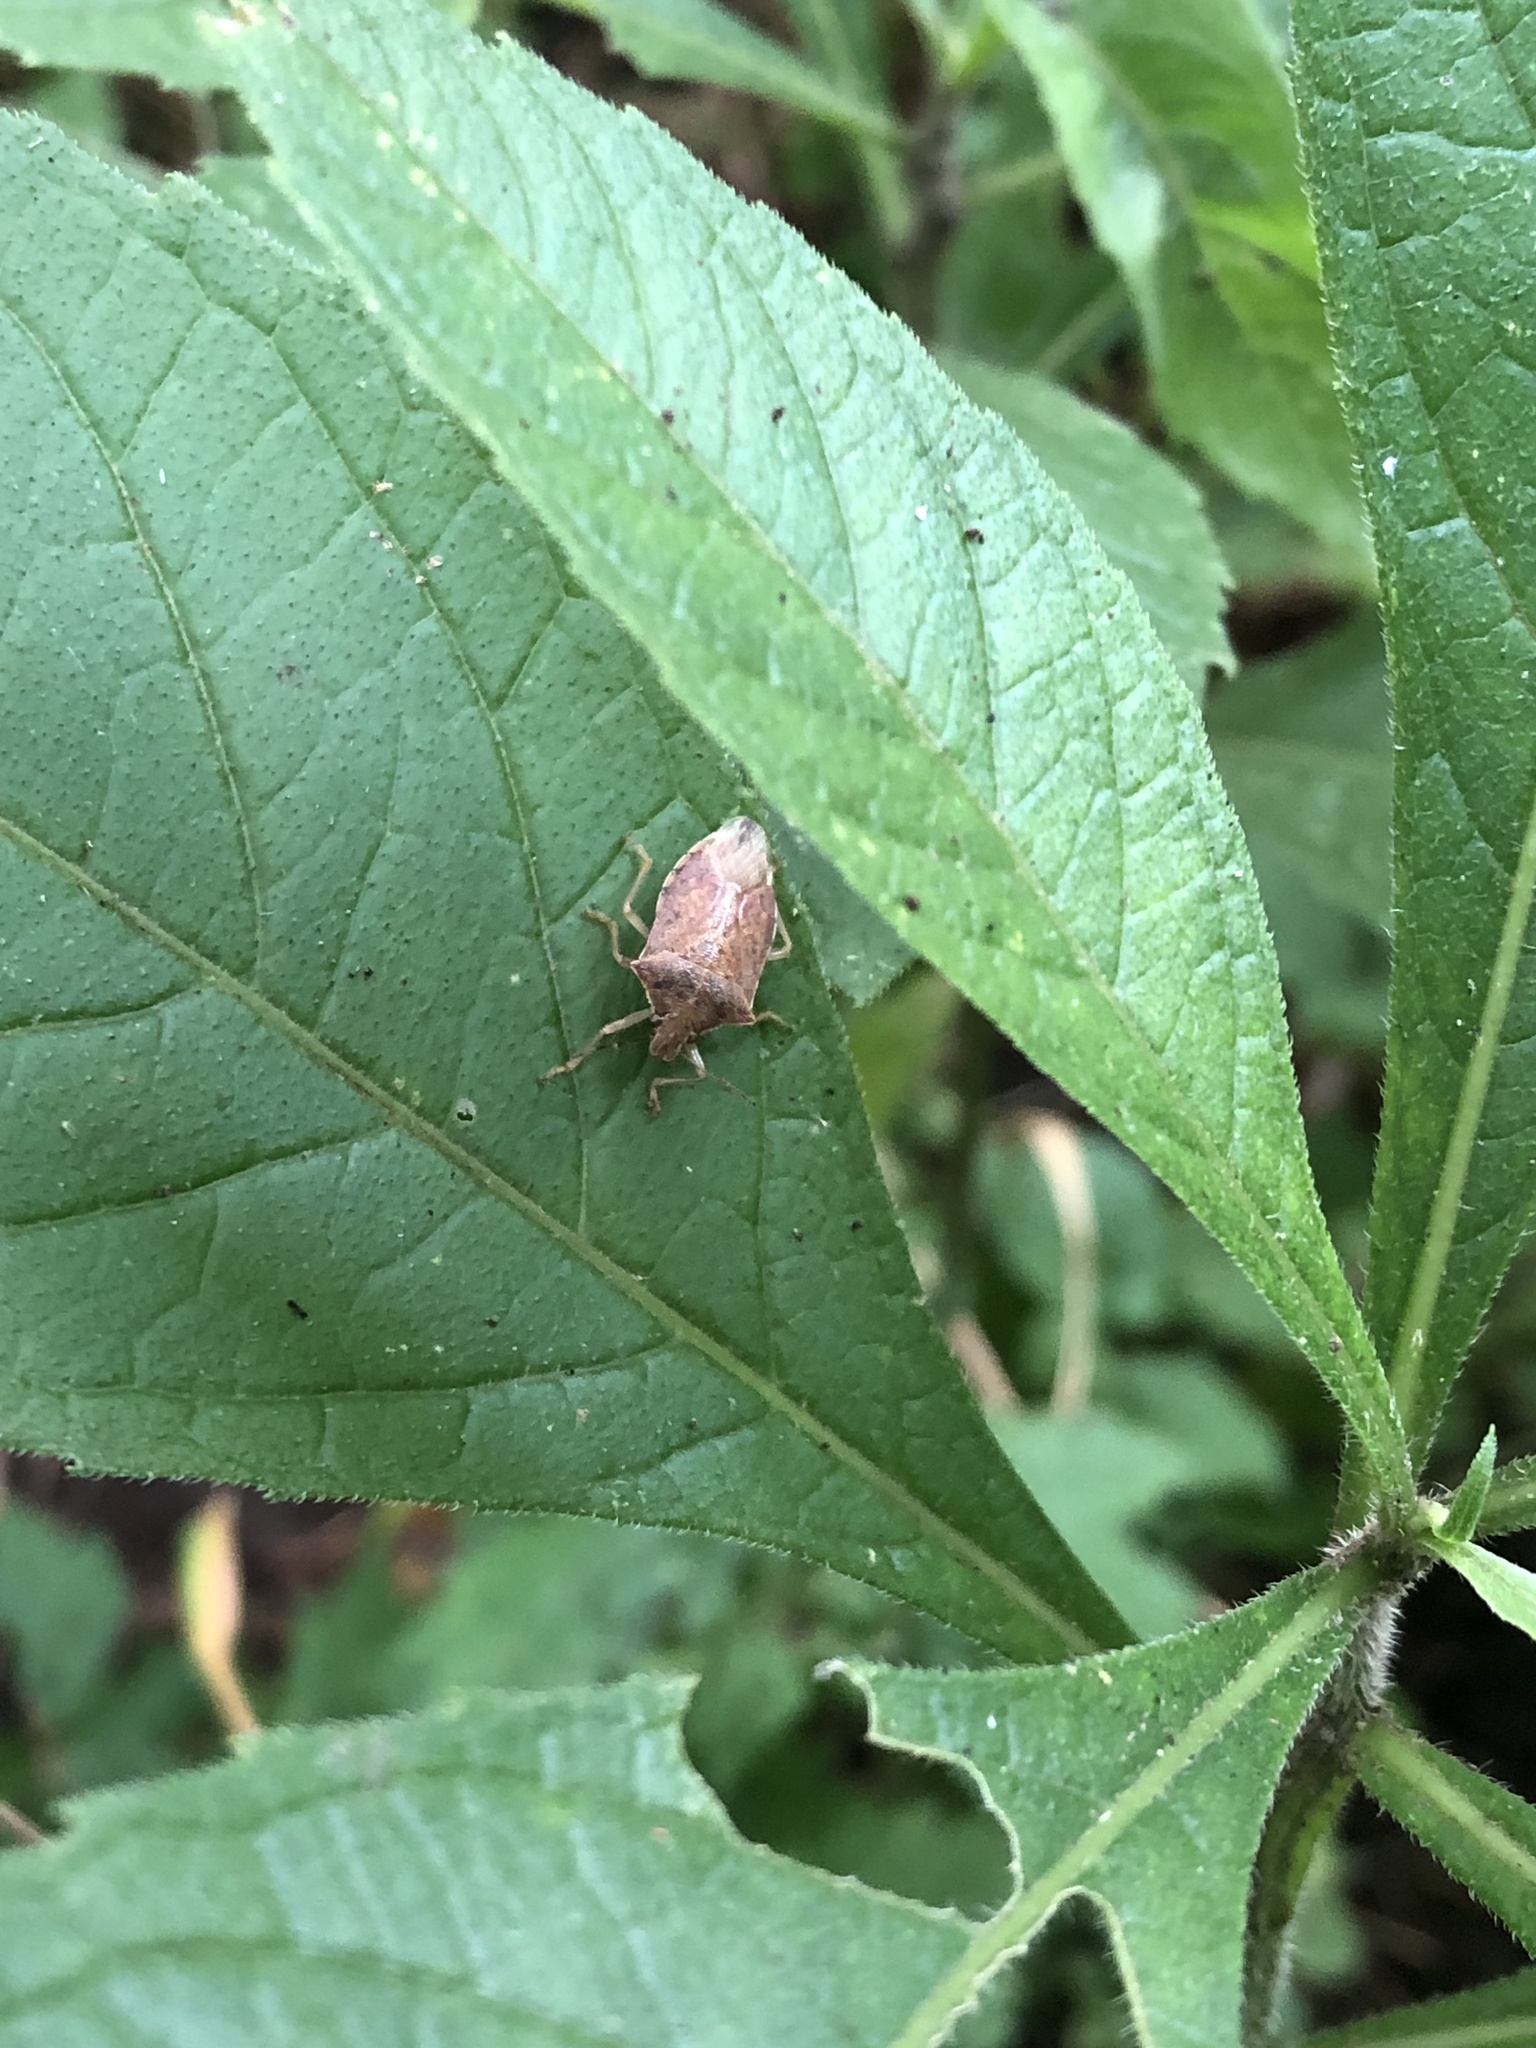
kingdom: Animalia
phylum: Arthropoda
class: Insecta
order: Hemiptera
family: Pentatomidae
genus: Podisus
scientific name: Podisus maculiventris
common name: Spined soldier bug
